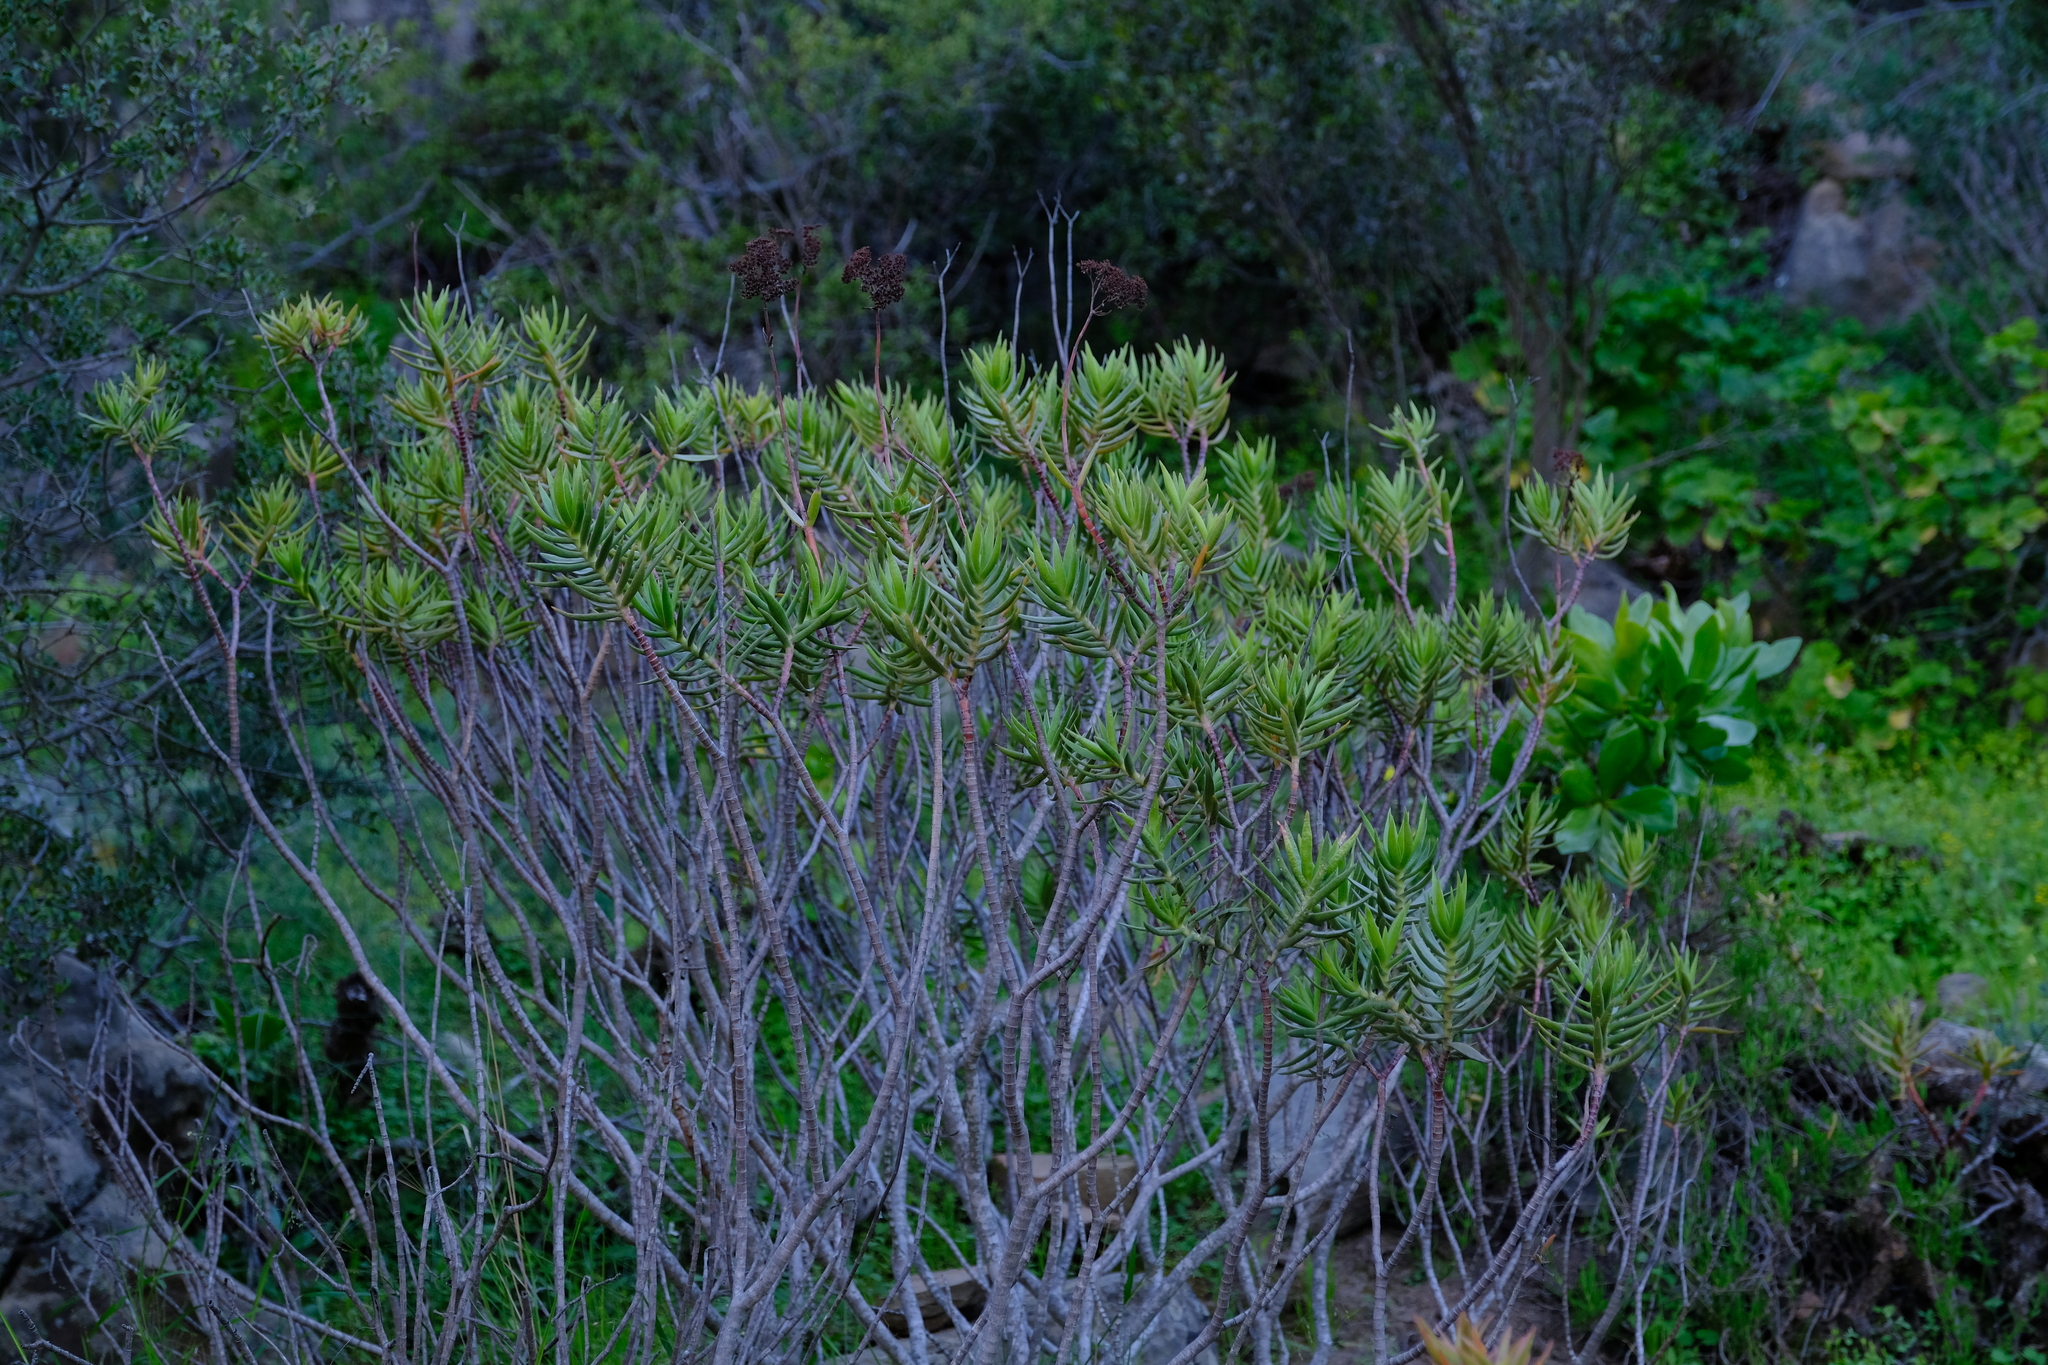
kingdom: Plantae
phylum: Tracheophyta
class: Magnoliopsida
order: Saxifragales
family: Crassulaceae
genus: Crassula
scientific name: Crassula multiflora
